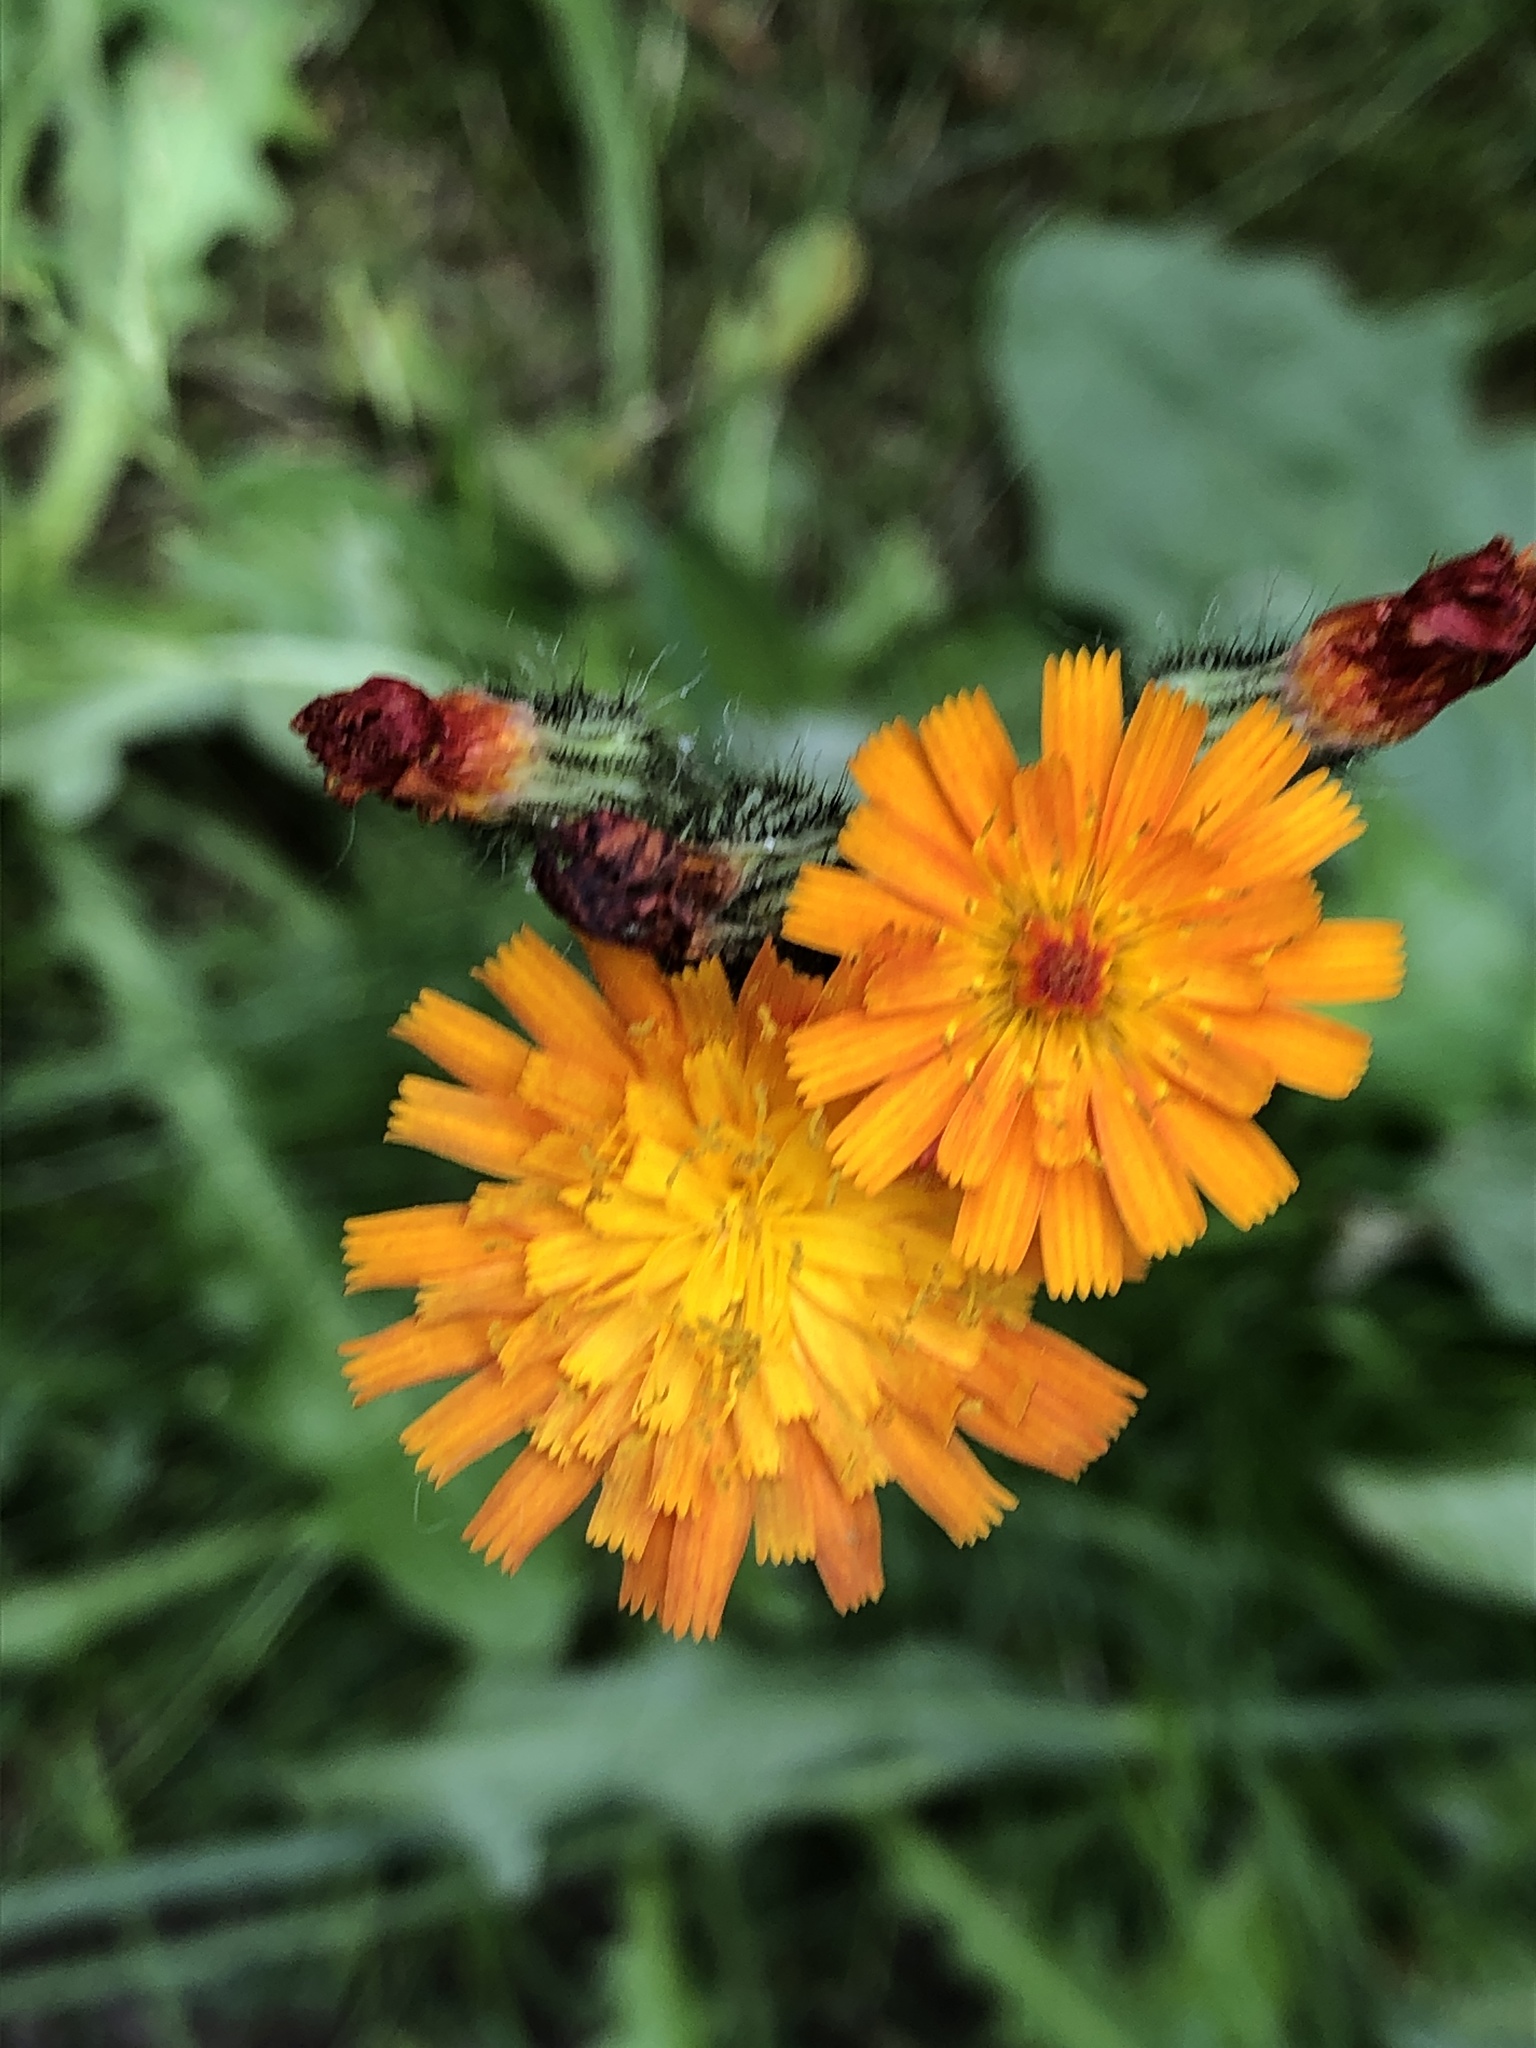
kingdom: Plantae
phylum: Tracheophyta
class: Magnoliopsida
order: Asterales
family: Asteraceae
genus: Pilosella
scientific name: Pilosella aurantiaca
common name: Fox-and-cubs
